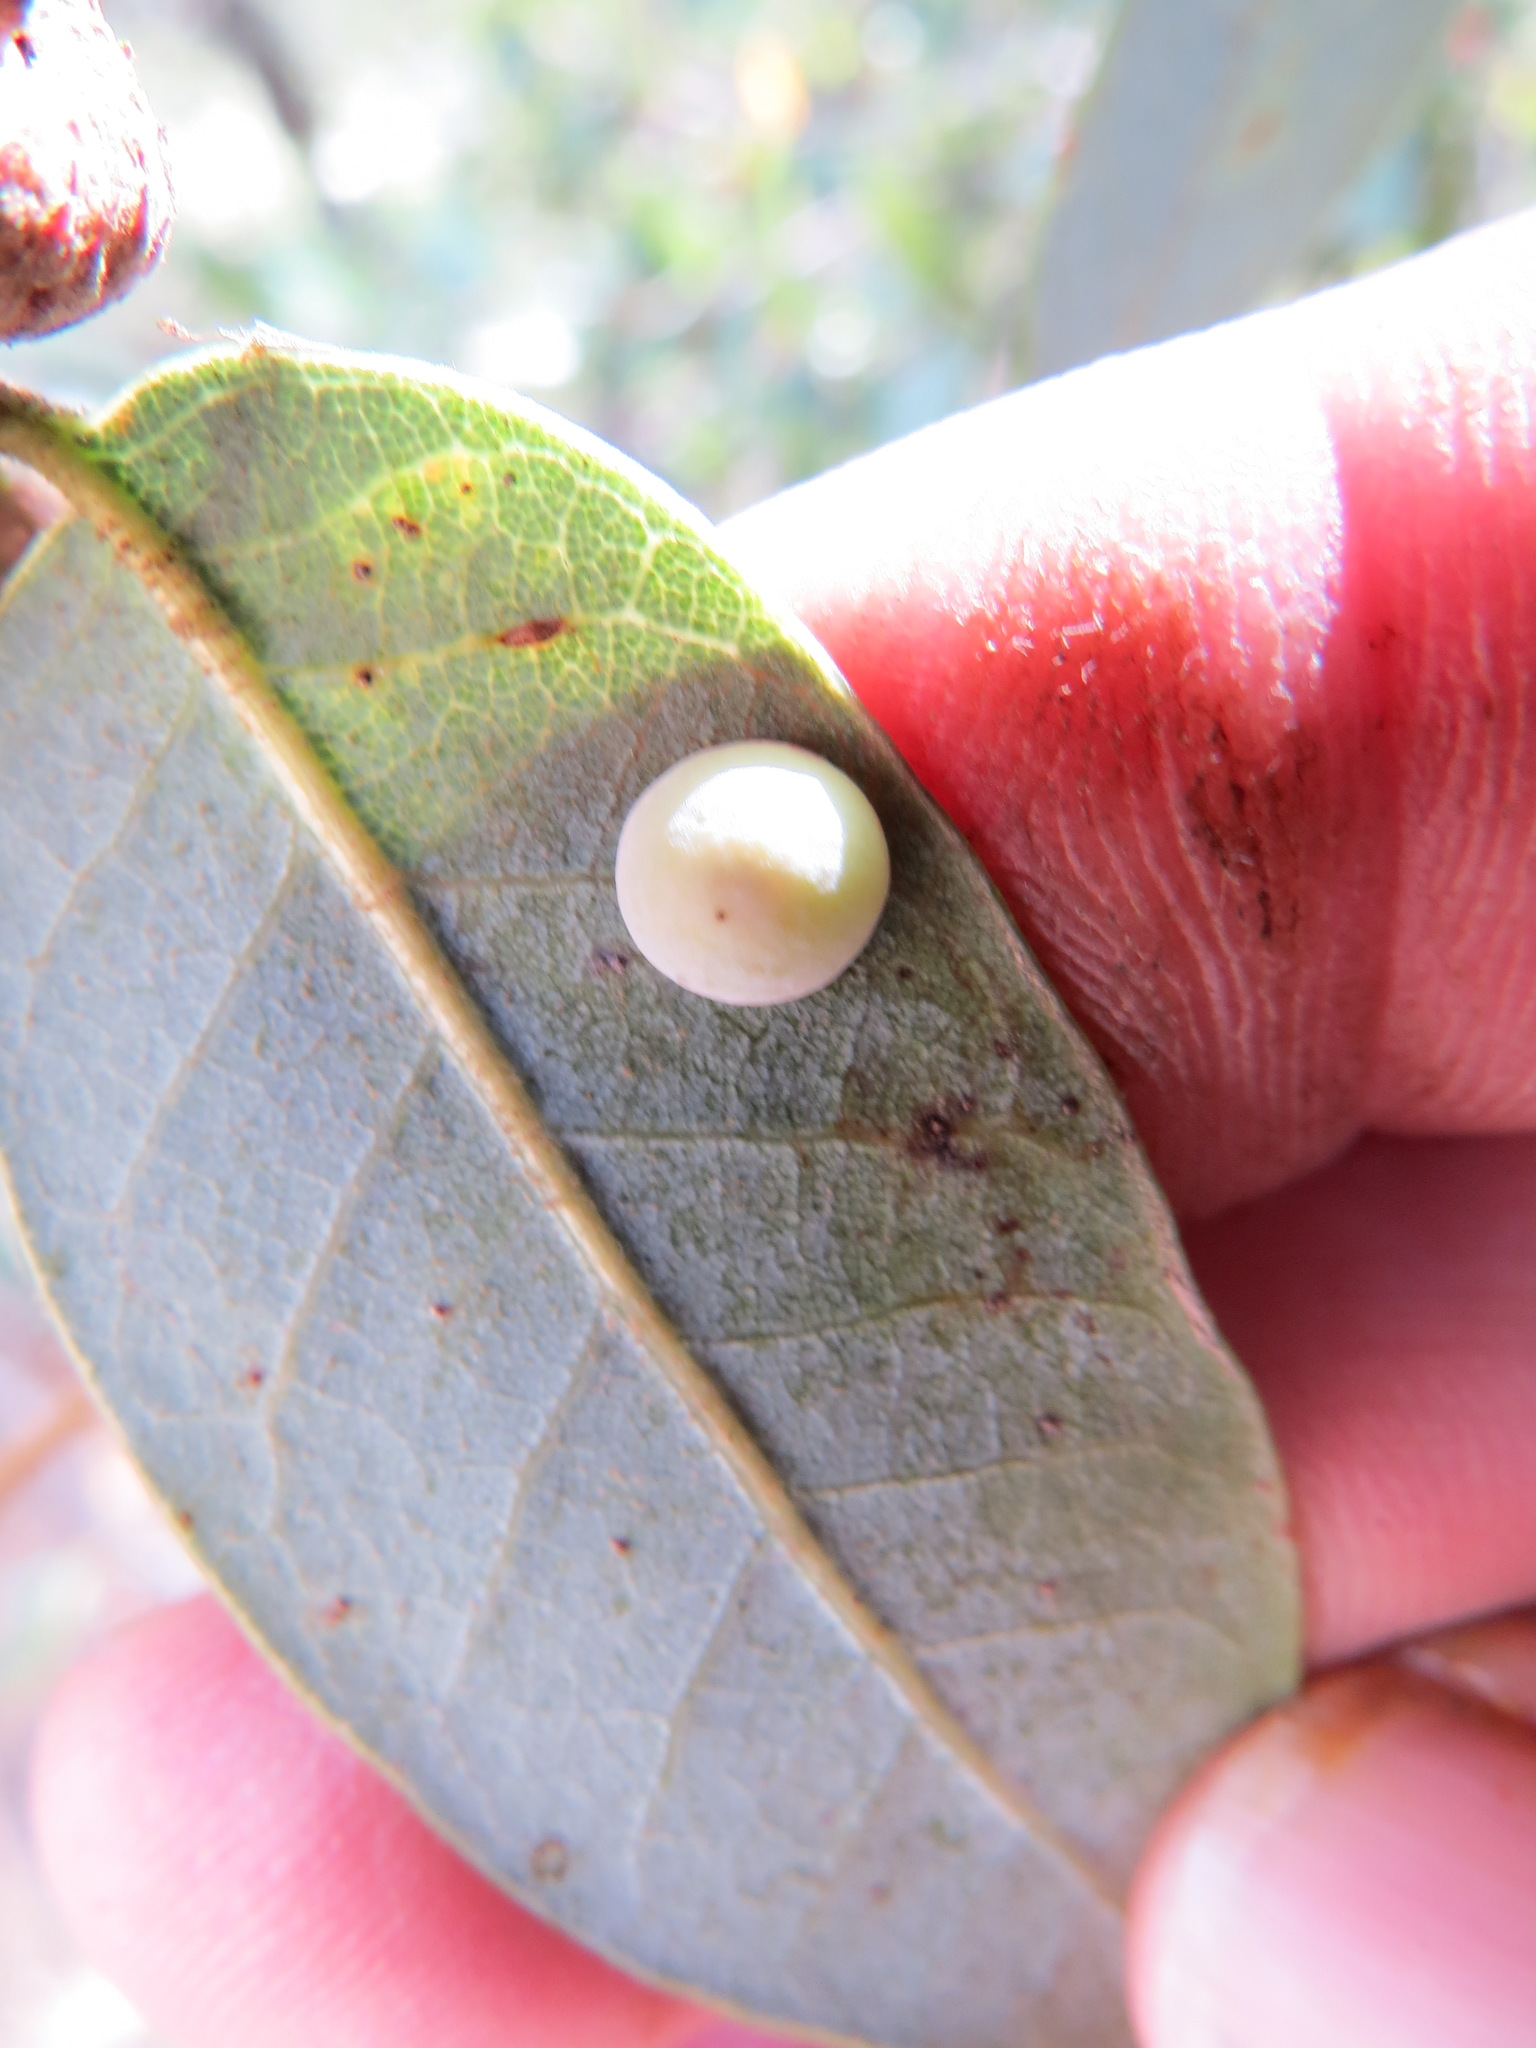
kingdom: Animalia
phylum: Arthropoda
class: Insecta
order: Hymenoptera
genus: Paracraspis
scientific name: Paracraspis
